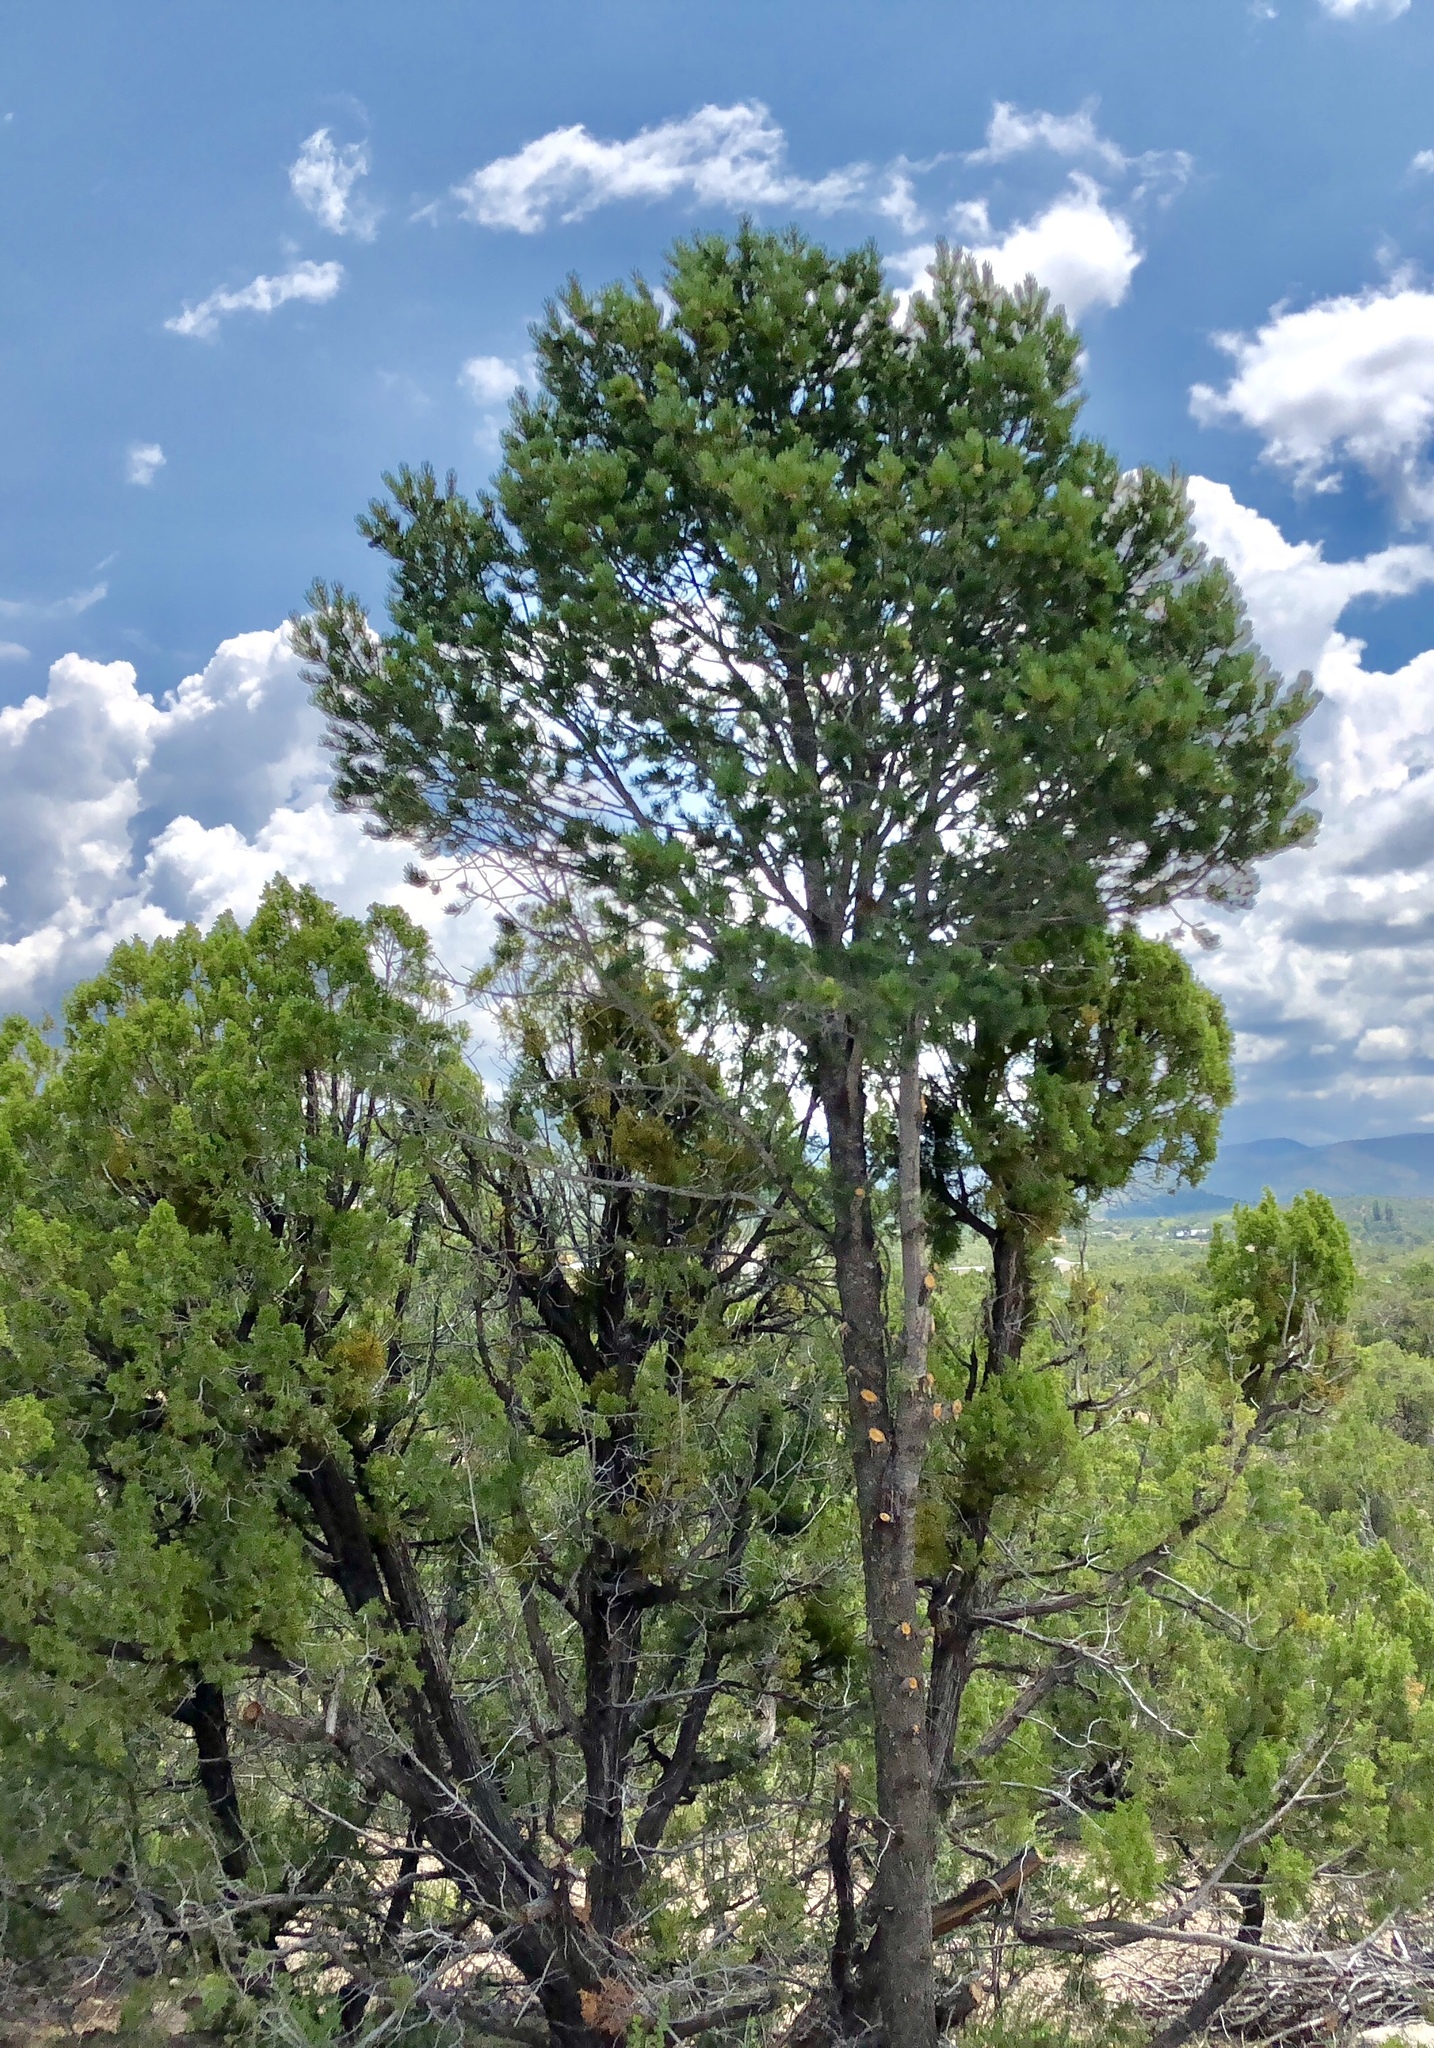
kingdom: Plantae
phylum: Tracheophyta
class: Pinopsida
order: Pinales
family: Pinaceae
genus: Pinus
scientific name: Pinus edulis
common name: Colorado pinyon
